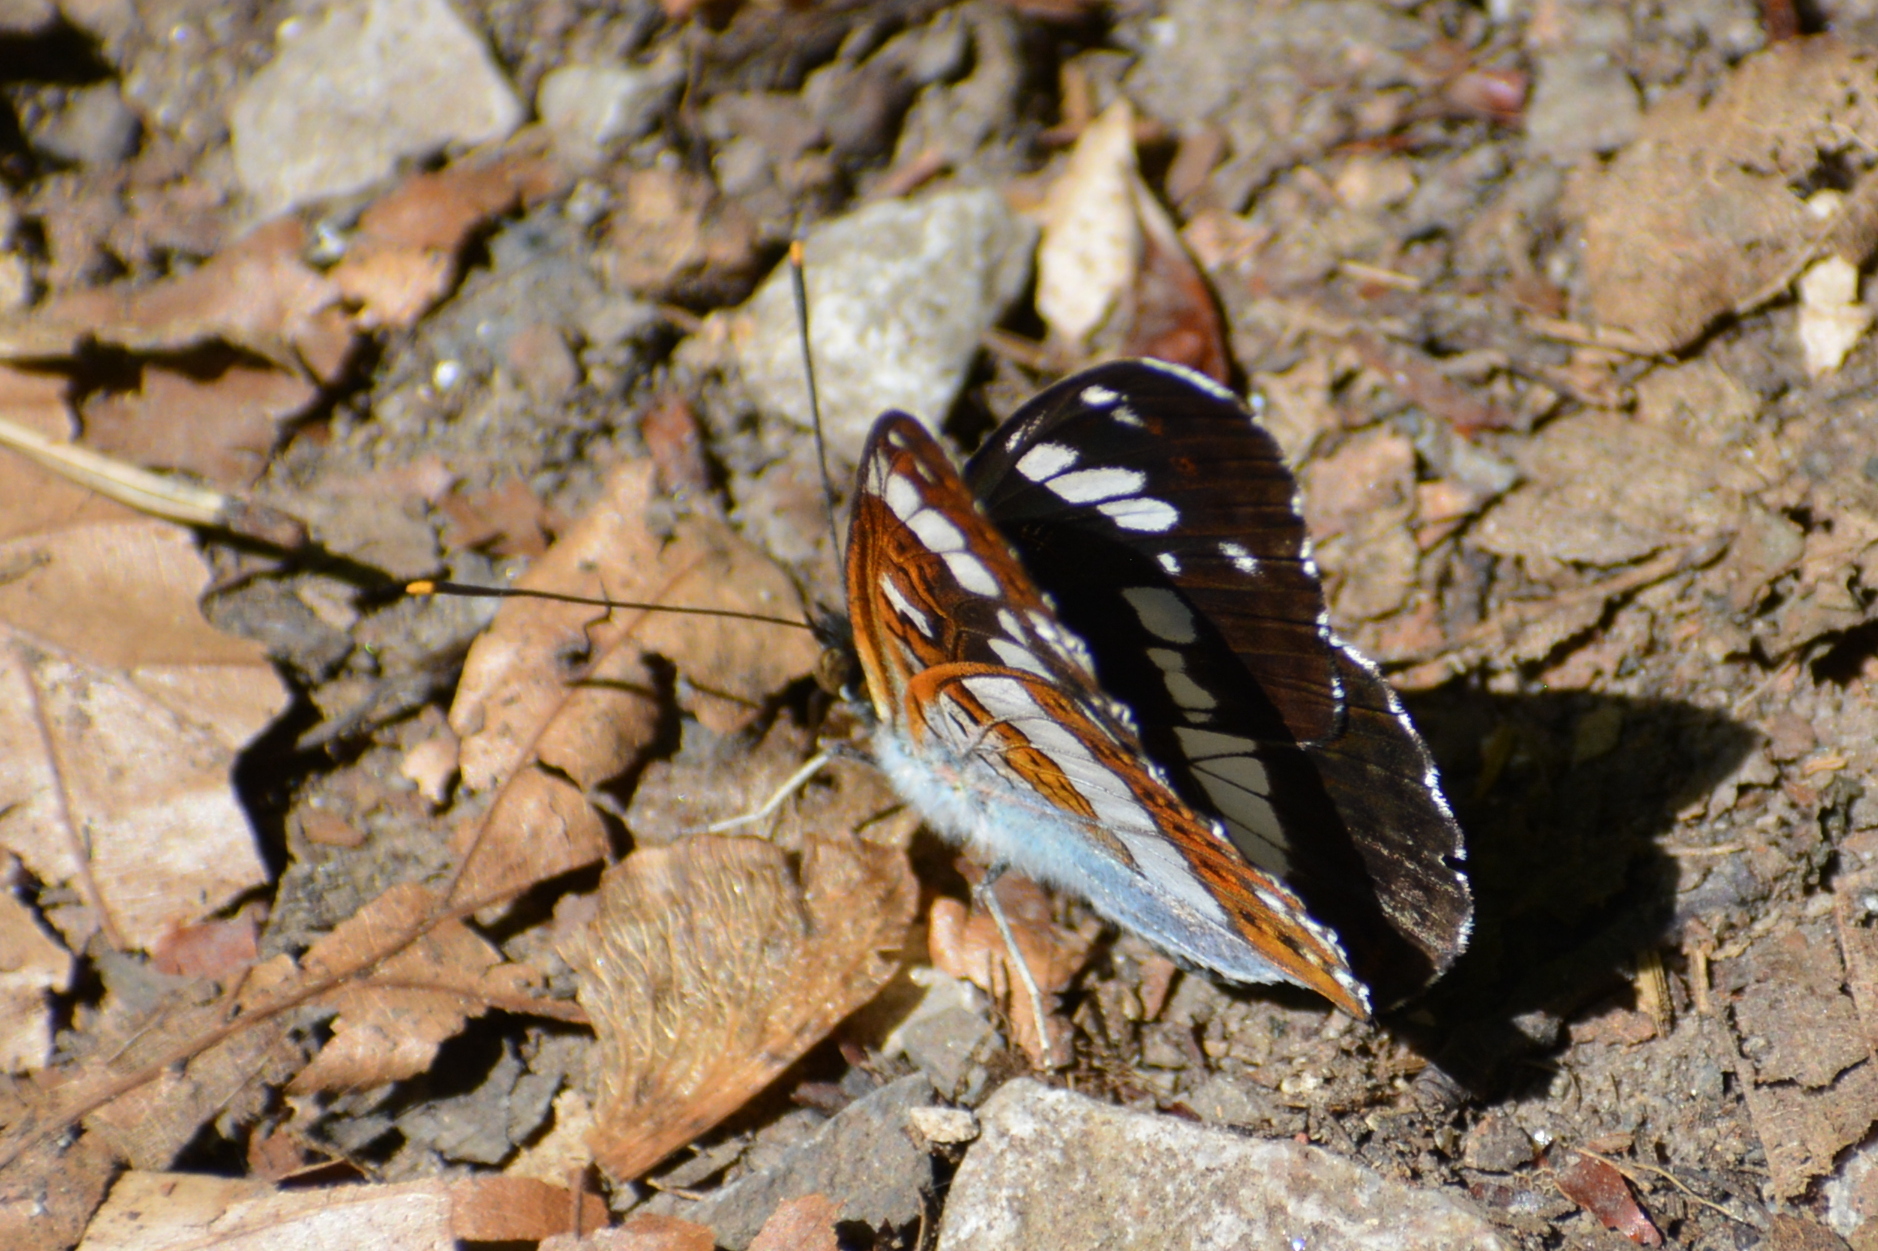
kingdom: Animalia
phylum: Arthropoda
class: Insecta
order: Lepidoptera
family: Nymphalidae
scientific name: Nymphalidae
